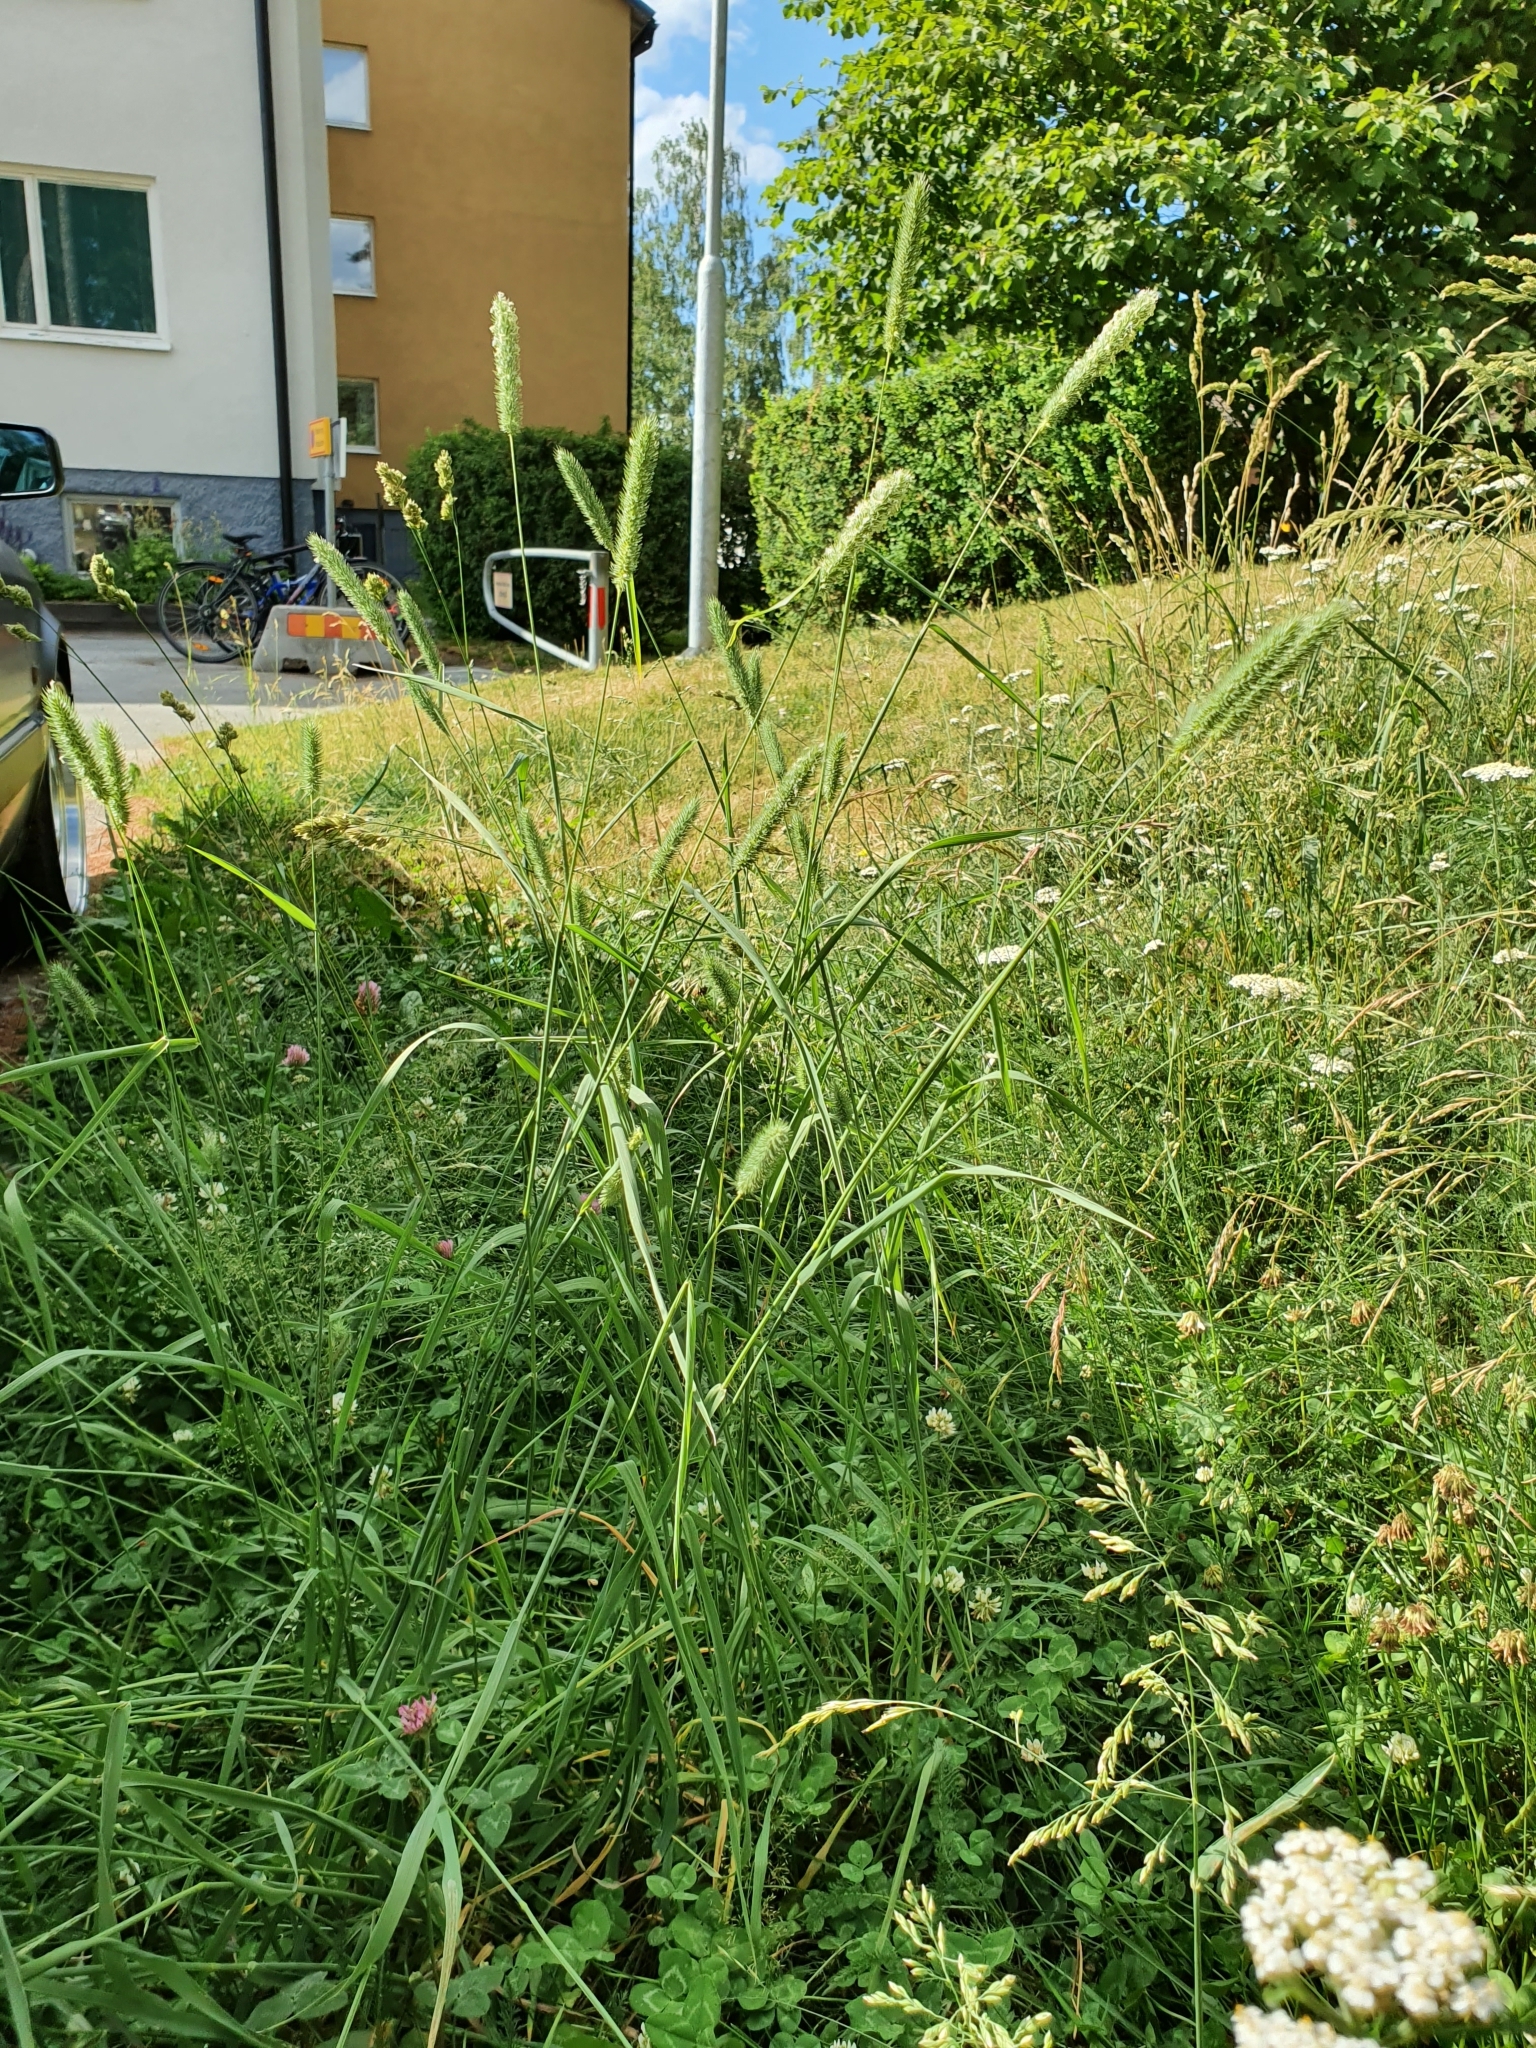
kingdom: Plantae
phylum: Tracheophyta
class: Liliopsida
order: Poales
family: Poaceae
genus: Phleum
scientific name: Phleum pratense
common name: Timothy grass
